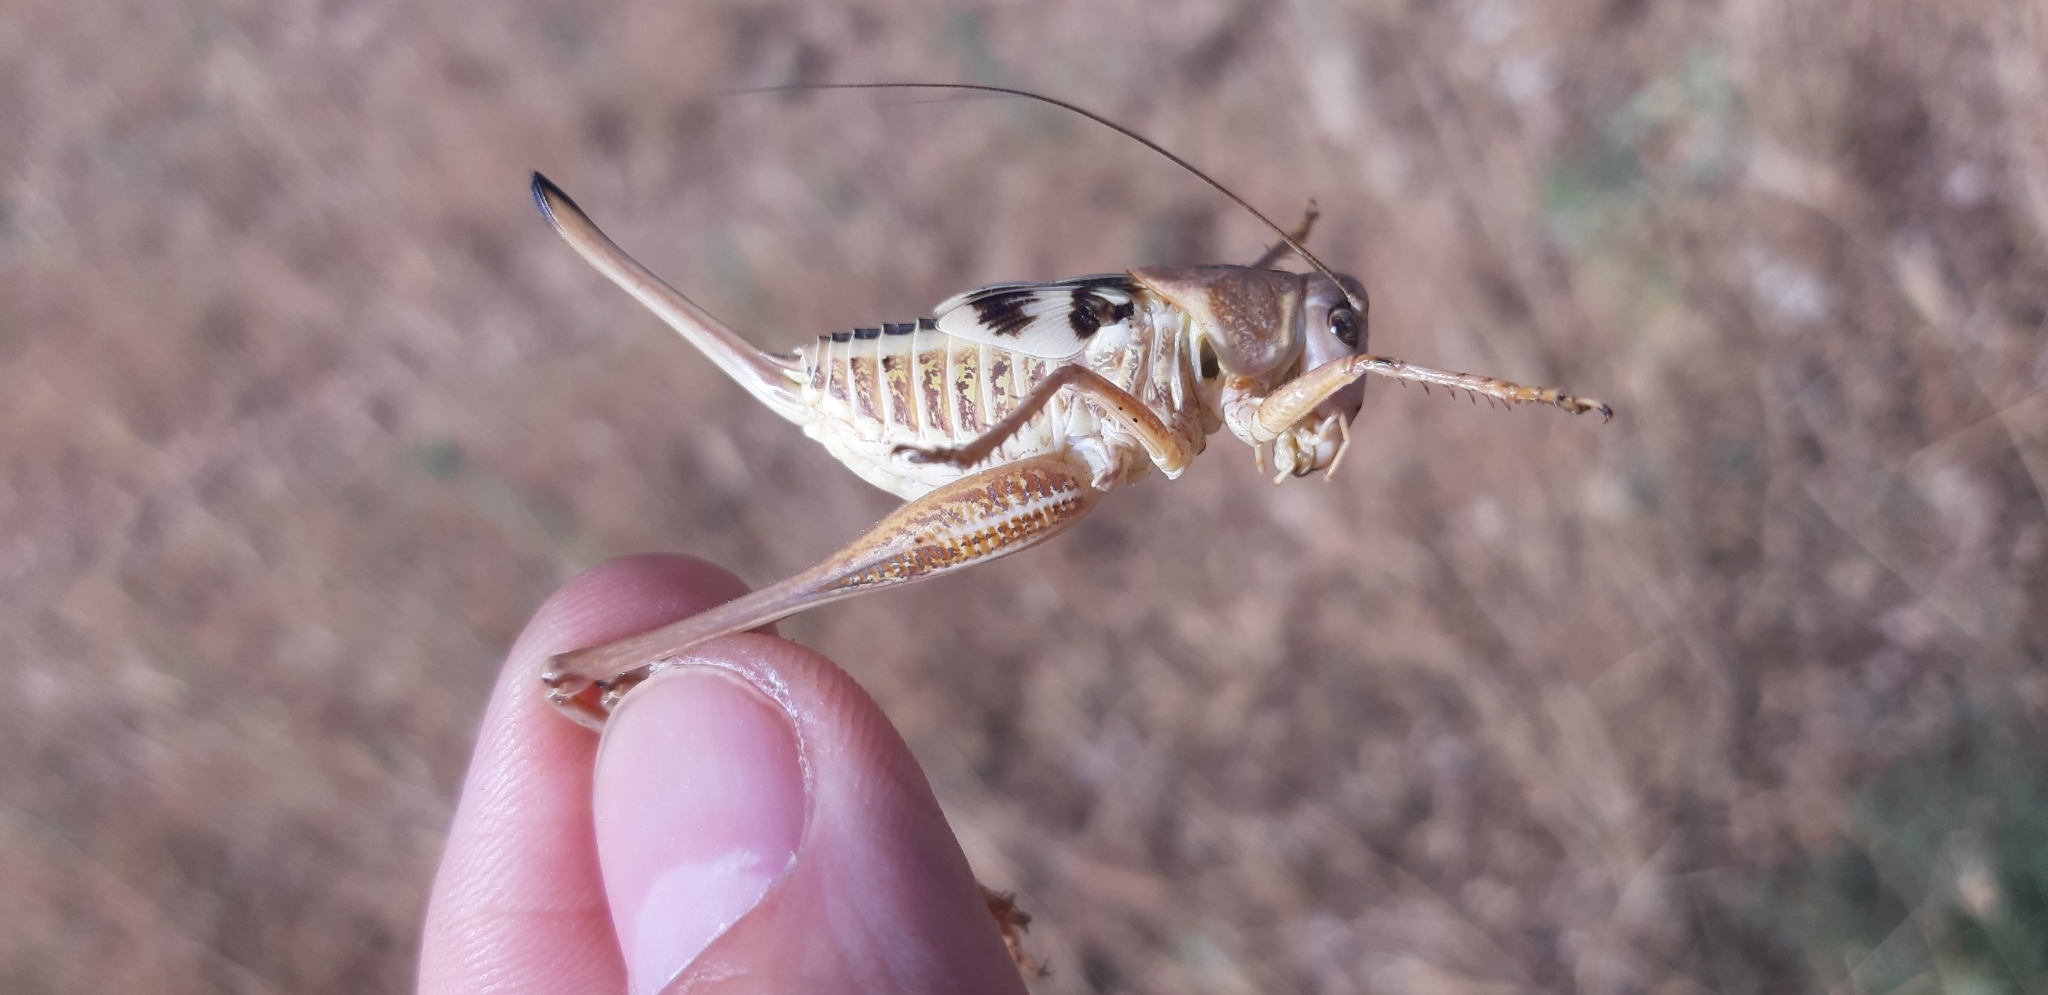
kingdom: Animalia
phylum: Arthropoda
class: Insecta
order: Orthoptera
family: Tettigoniidae
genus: Decticus
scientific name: Decticus albifrons
